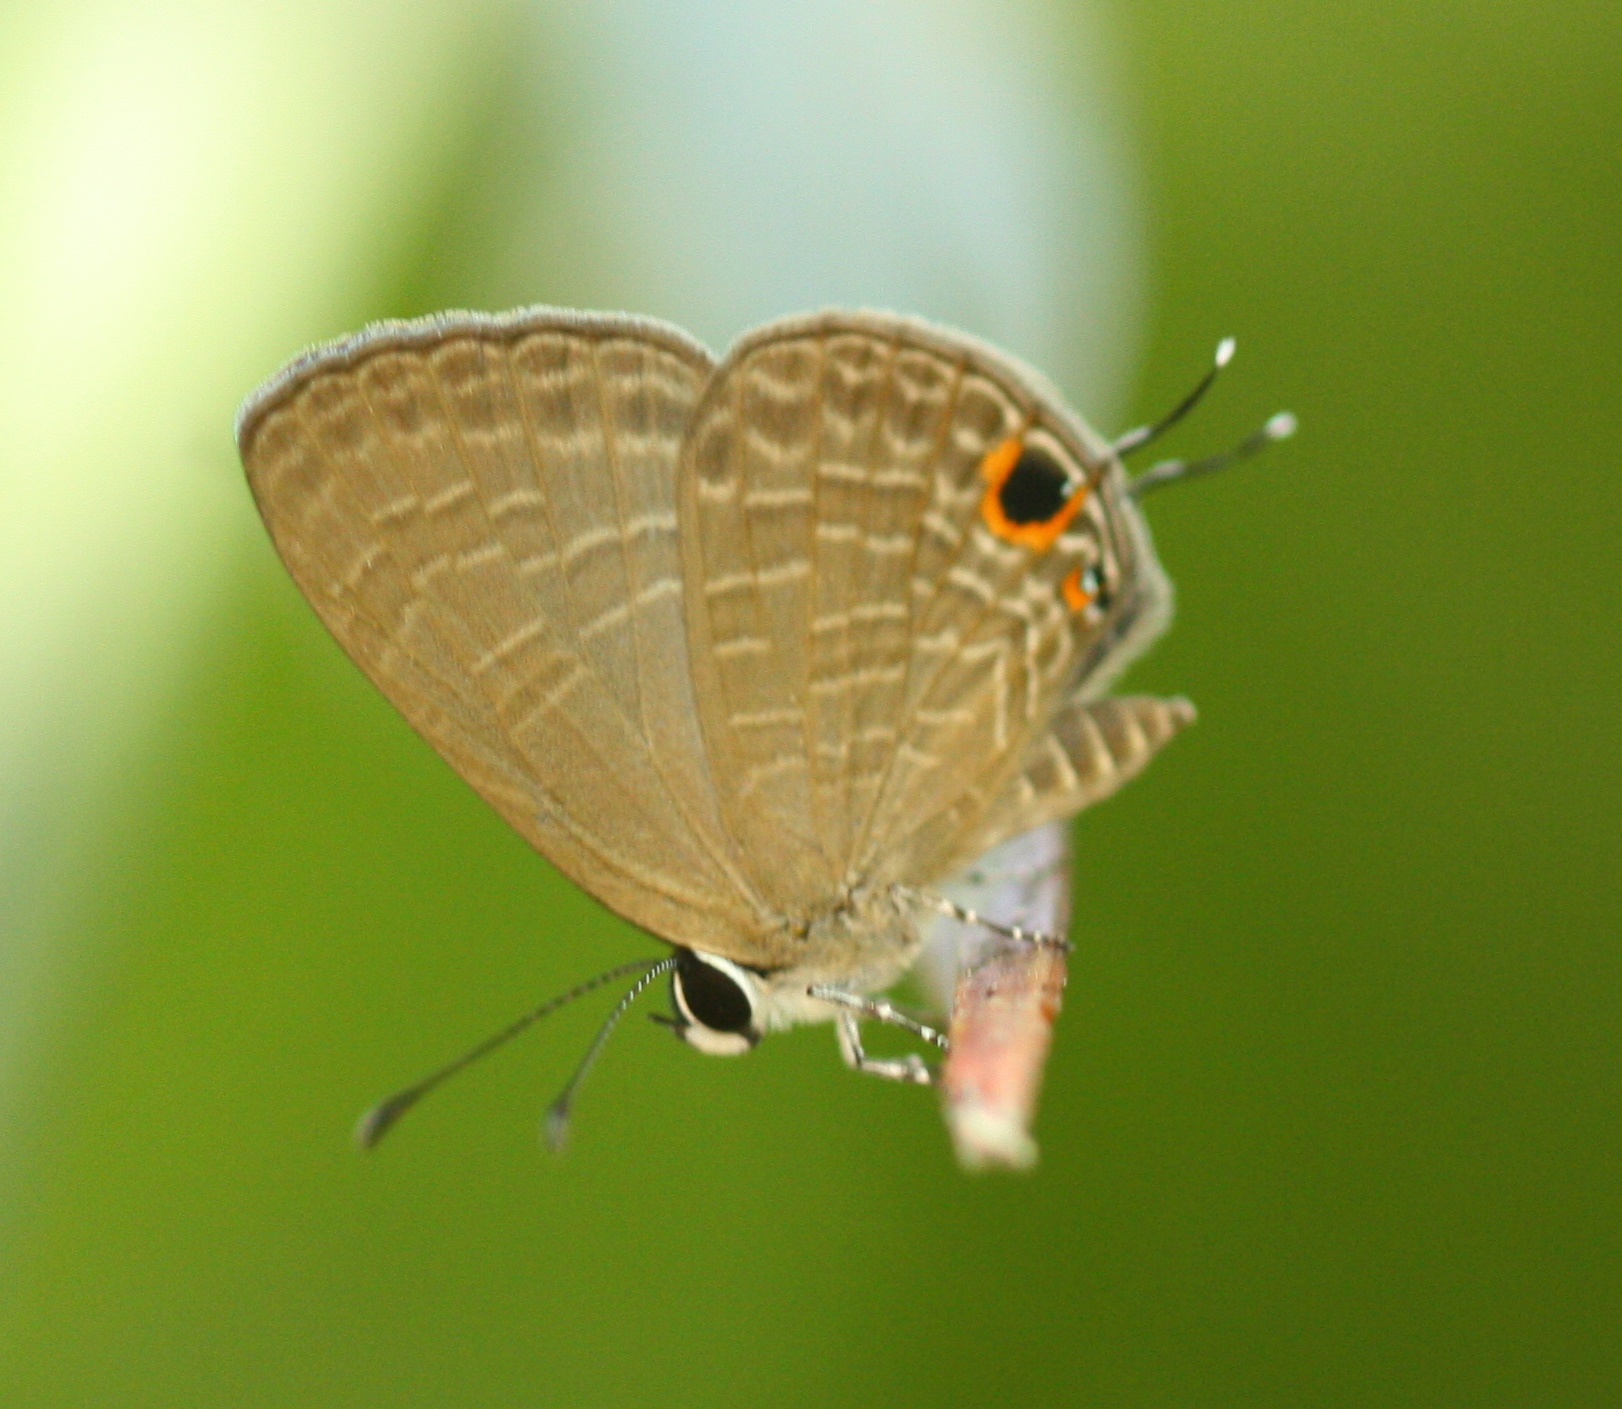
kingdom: Animalia
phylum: Arthropoda
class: Insecta
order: Lepidoptera
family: Lycaenidae
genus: Jamides
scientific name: Jamides bochus
